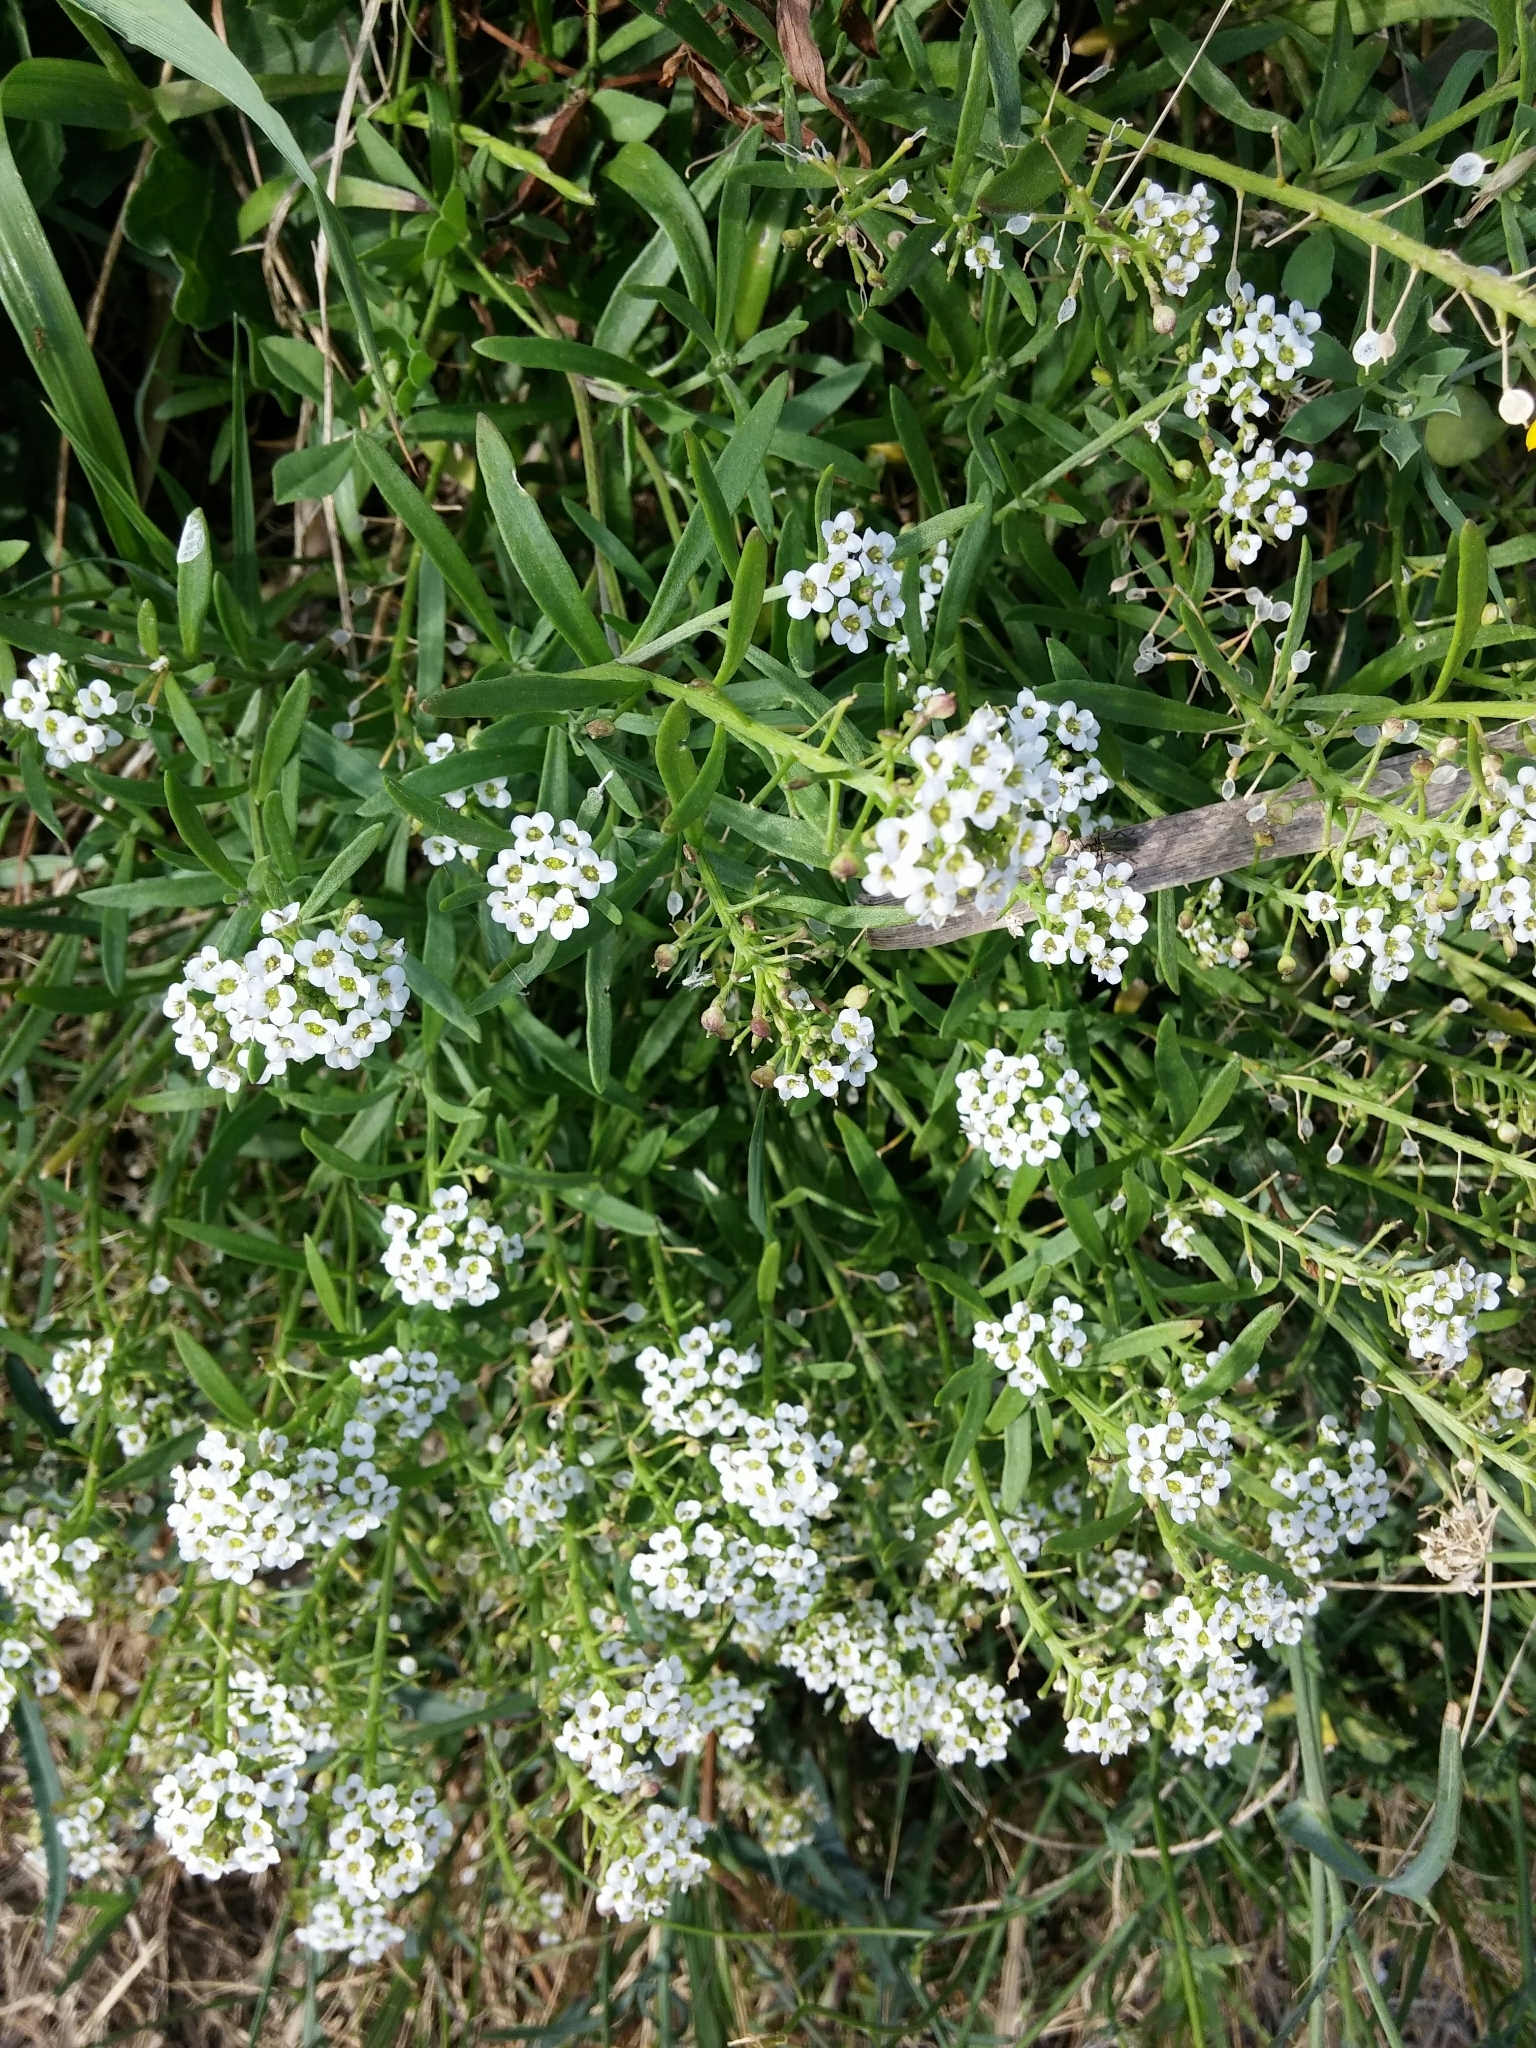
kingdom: Plantae
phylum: Tracheophyta
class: Magnoliopsida
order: Brassicales
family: Brassicaceae
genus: Lobularia
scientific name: Lobularia maritima
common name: Sweet alison
